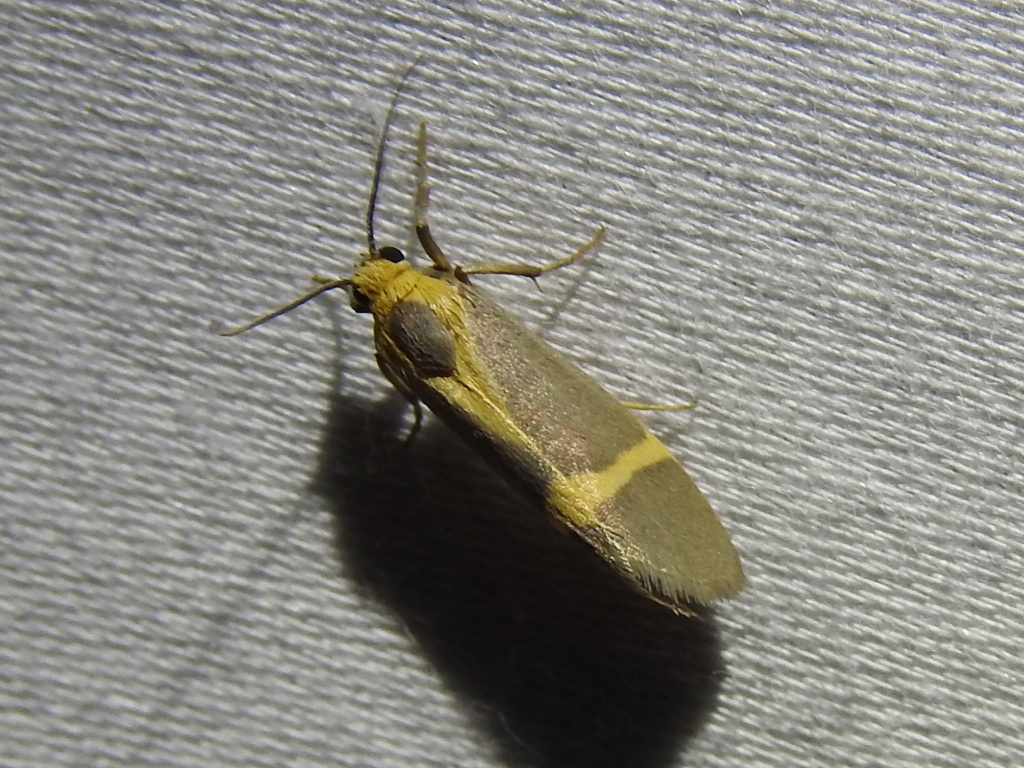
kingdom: Animalia
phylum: Arthropoda
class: Insecta
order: Lepidoptera
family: Erebidae
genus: Cisthene
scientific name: Cisthene tenuifascia
